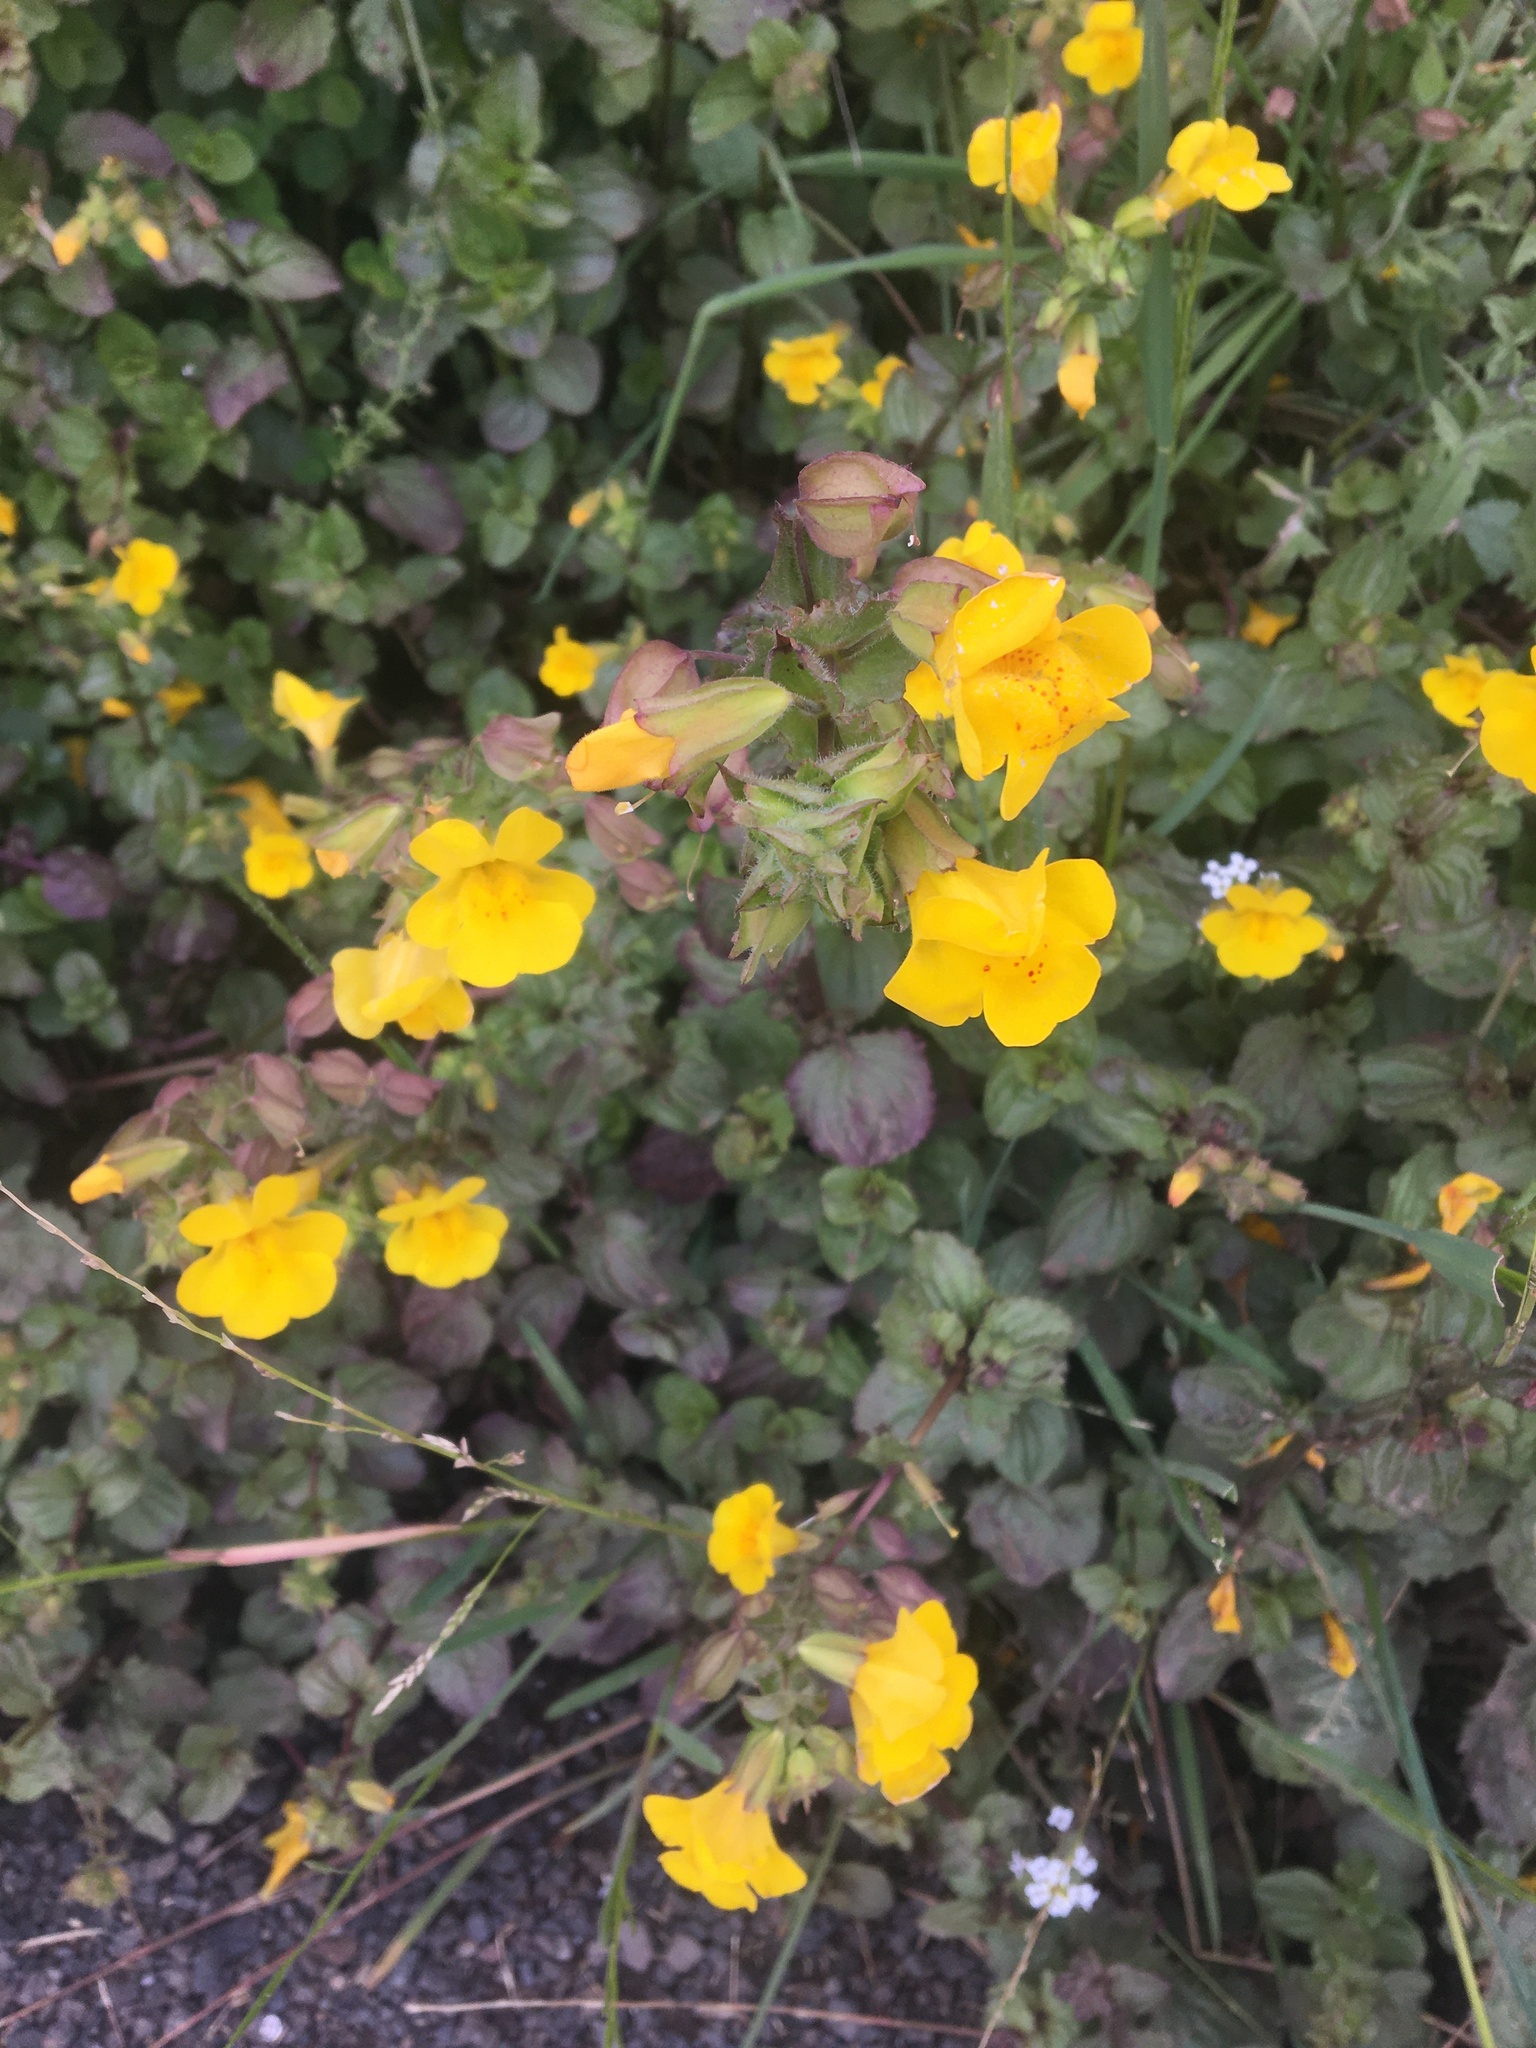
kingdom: Plantae
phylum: Tracheophyta
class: Magnoliopsida
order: Lamiales
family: Phrymaceae
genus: Erythranthe
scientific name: Erythranthe guttata
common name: Monkeyflower
